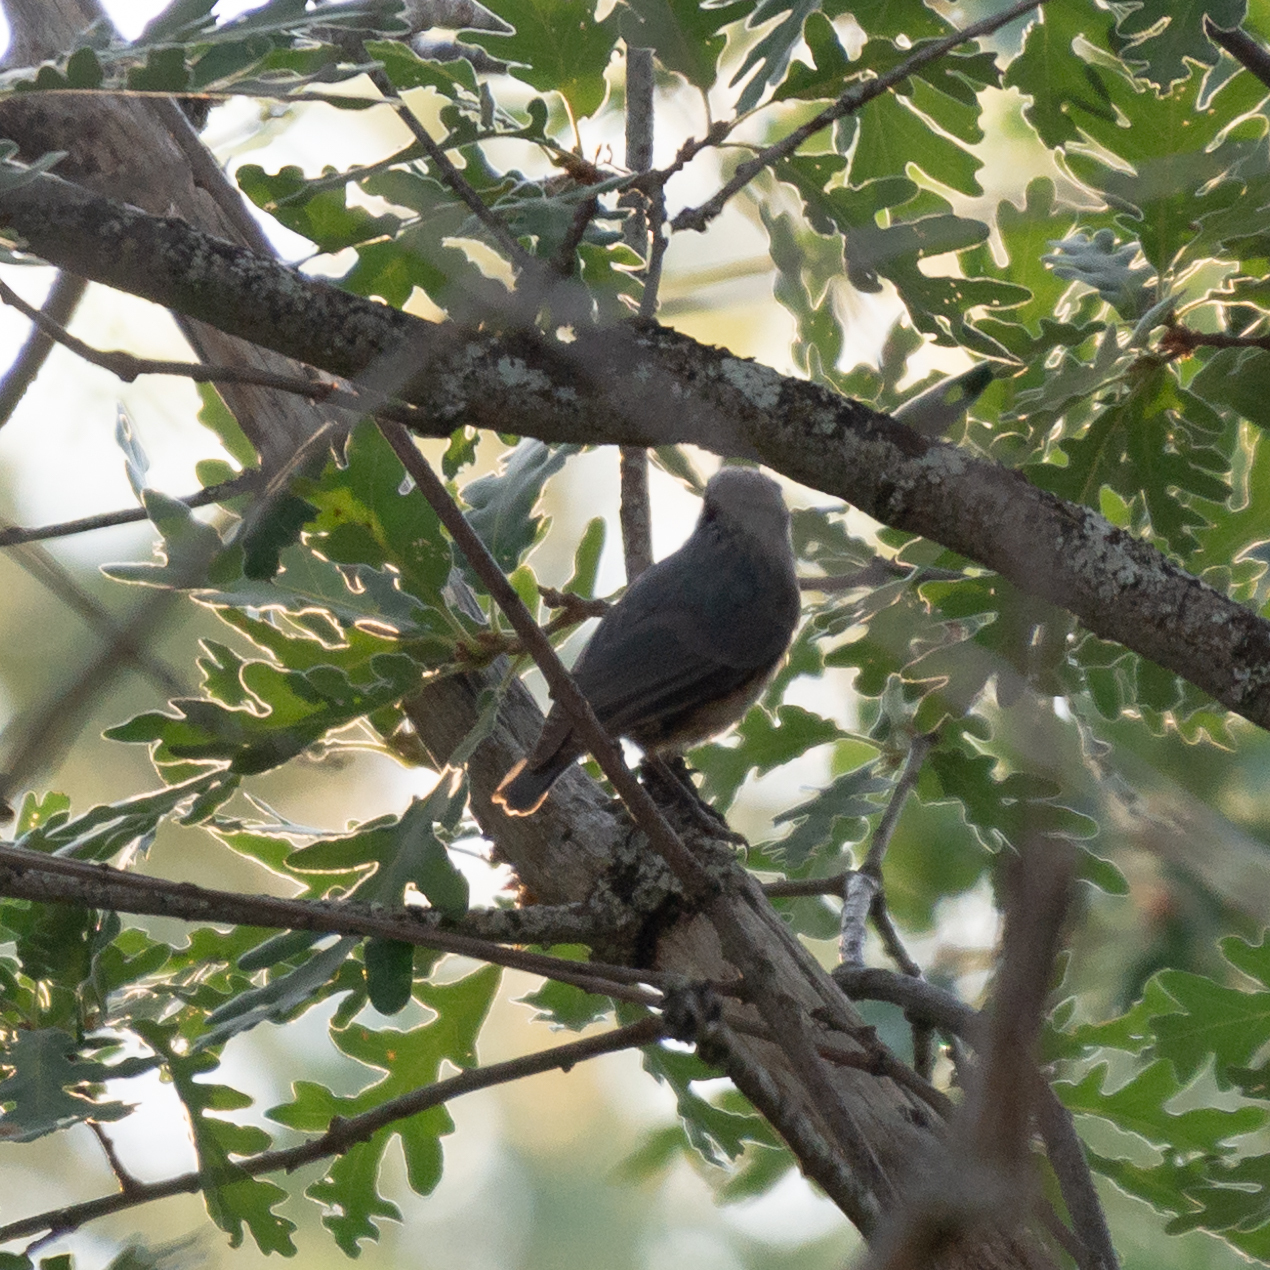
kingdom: Animalia
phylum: Chordata
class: Aves
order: Passeriformes
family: Sittidae
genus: Sitta
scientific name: Sitta europaea
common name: Eurasian nuthatch
